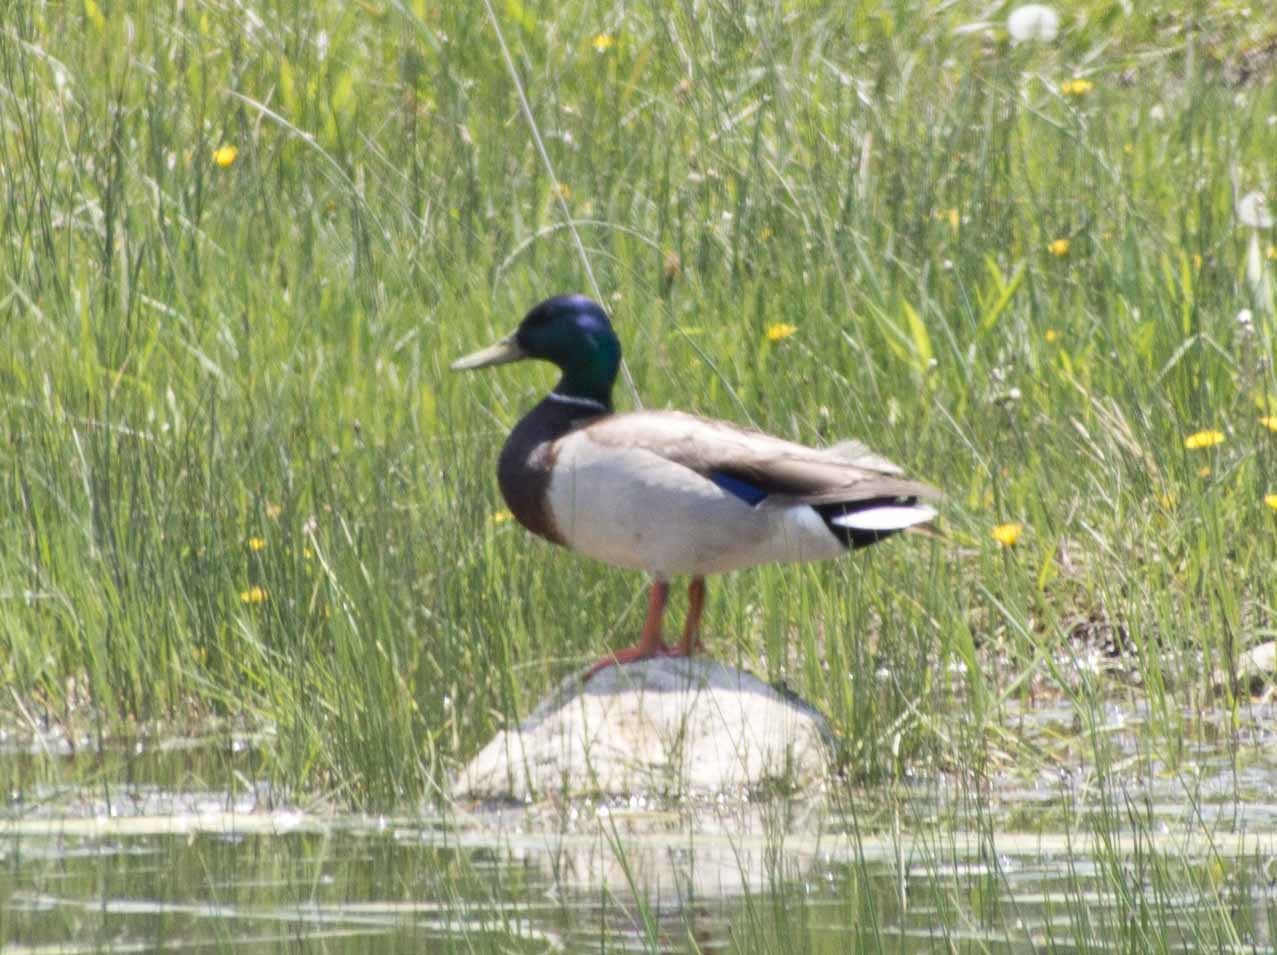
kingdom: Animalia
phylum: Chordata
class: Aves
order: Anseriformes
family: Anatidae
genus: Anas
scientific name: Anas platyrhynchos
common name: Mallard
